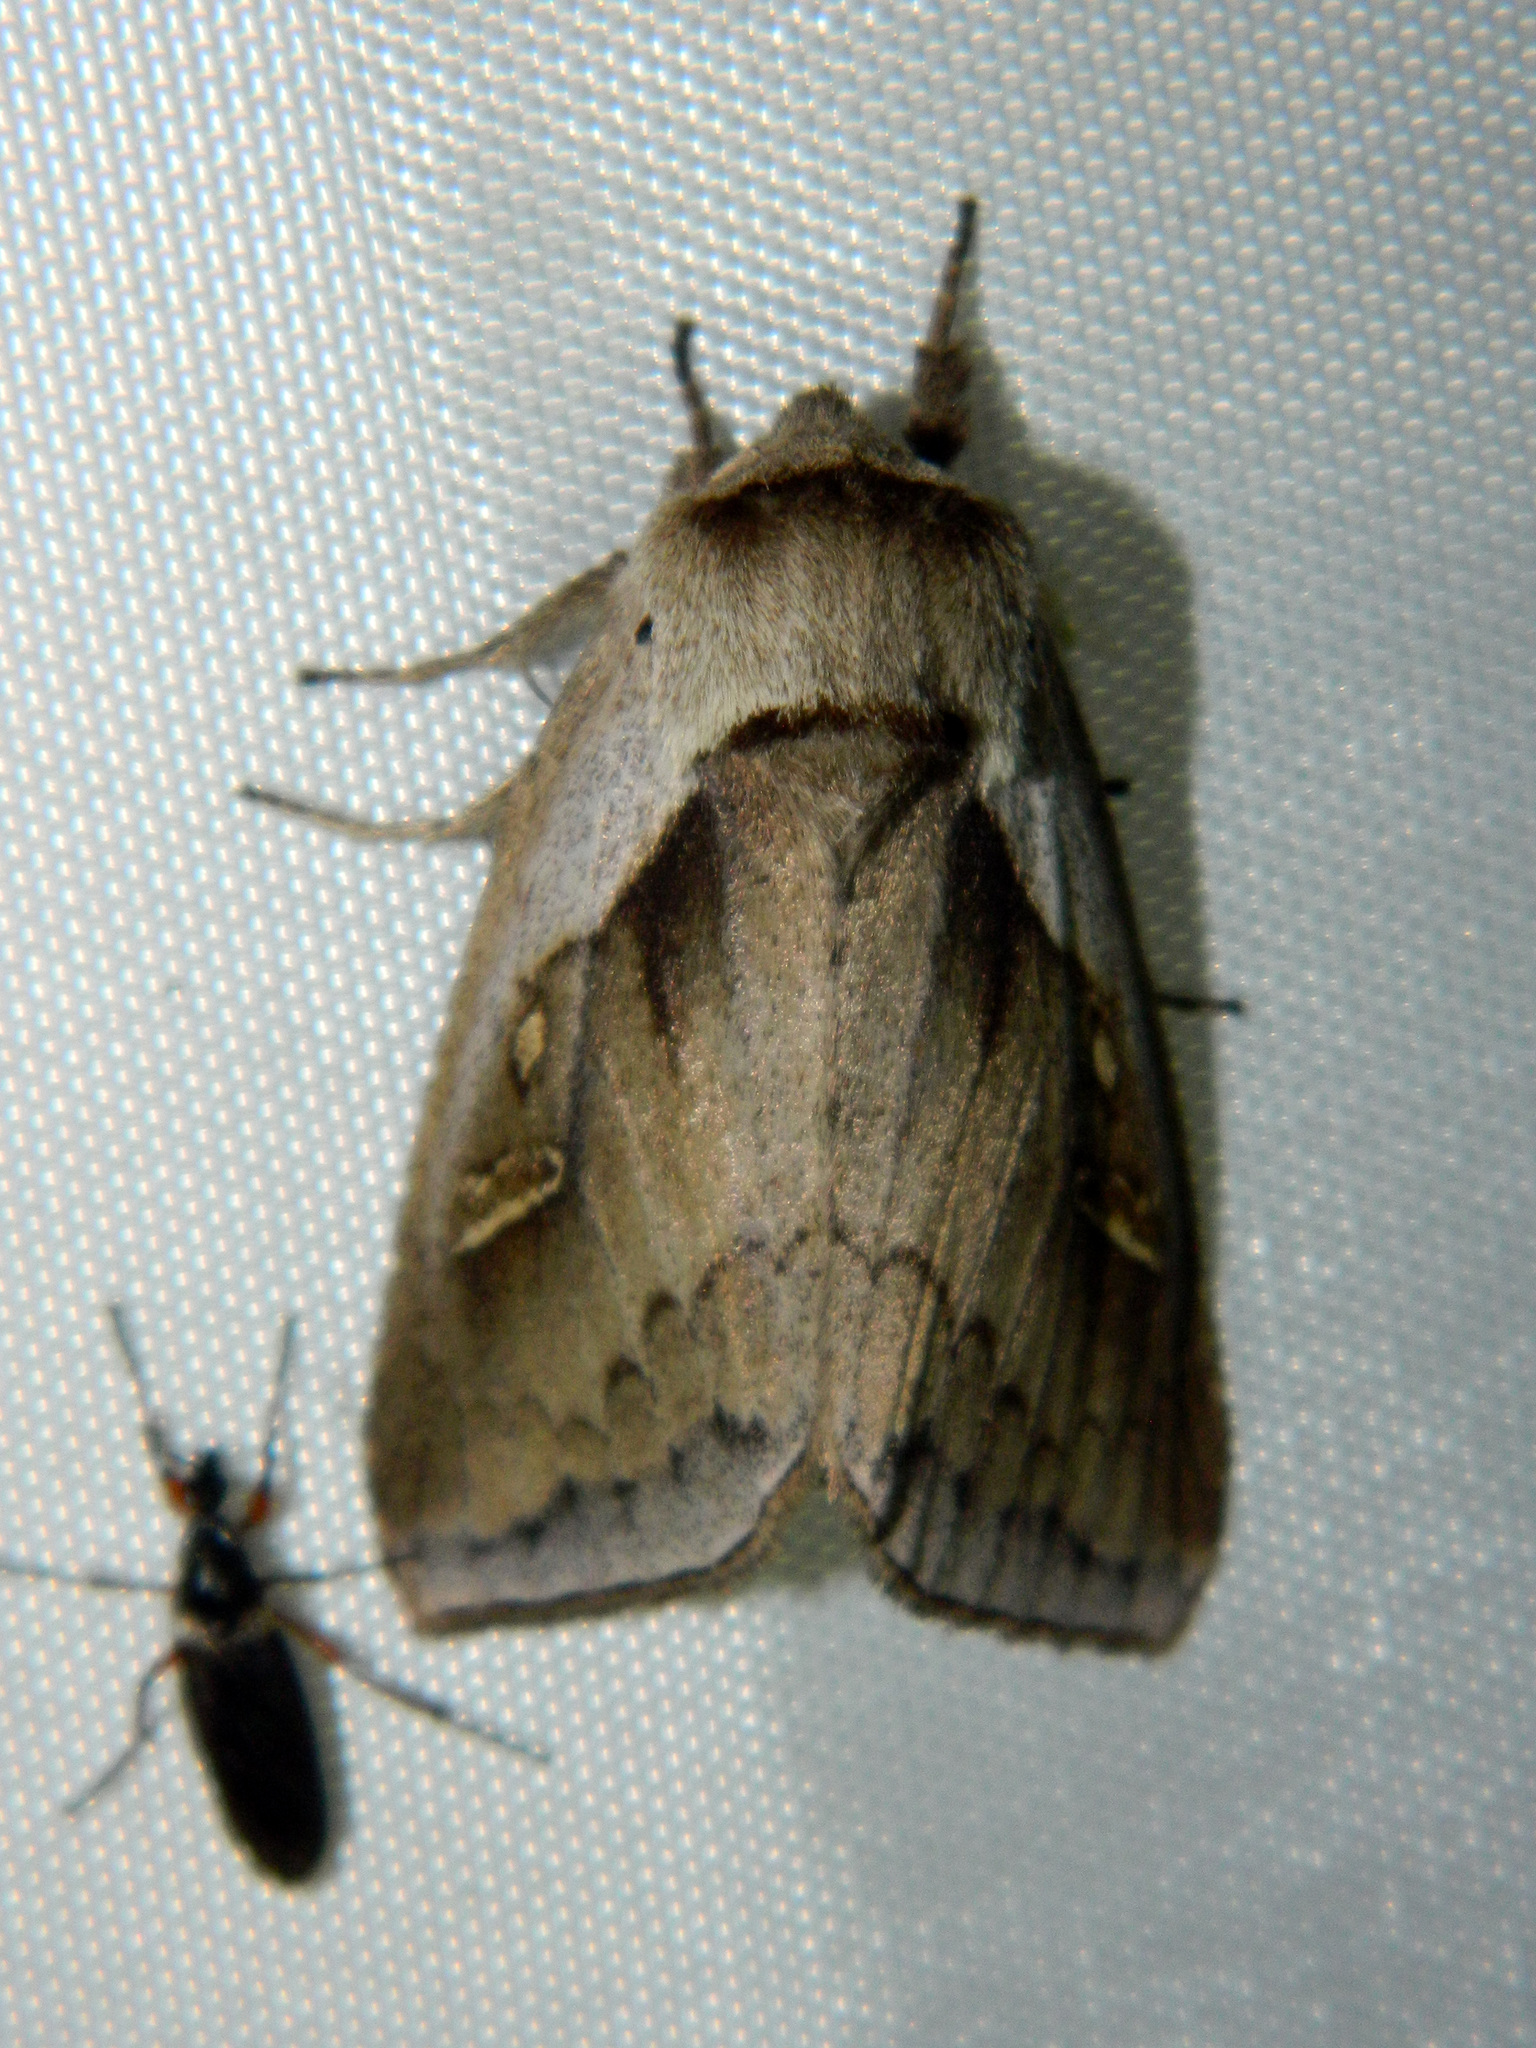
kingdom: Animalia
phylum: Arthropoda
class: Insecta
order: Lepidoptera
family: Noctuidae
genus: Bellura
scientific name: Bellura obliqua
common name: Cattail borer moth
